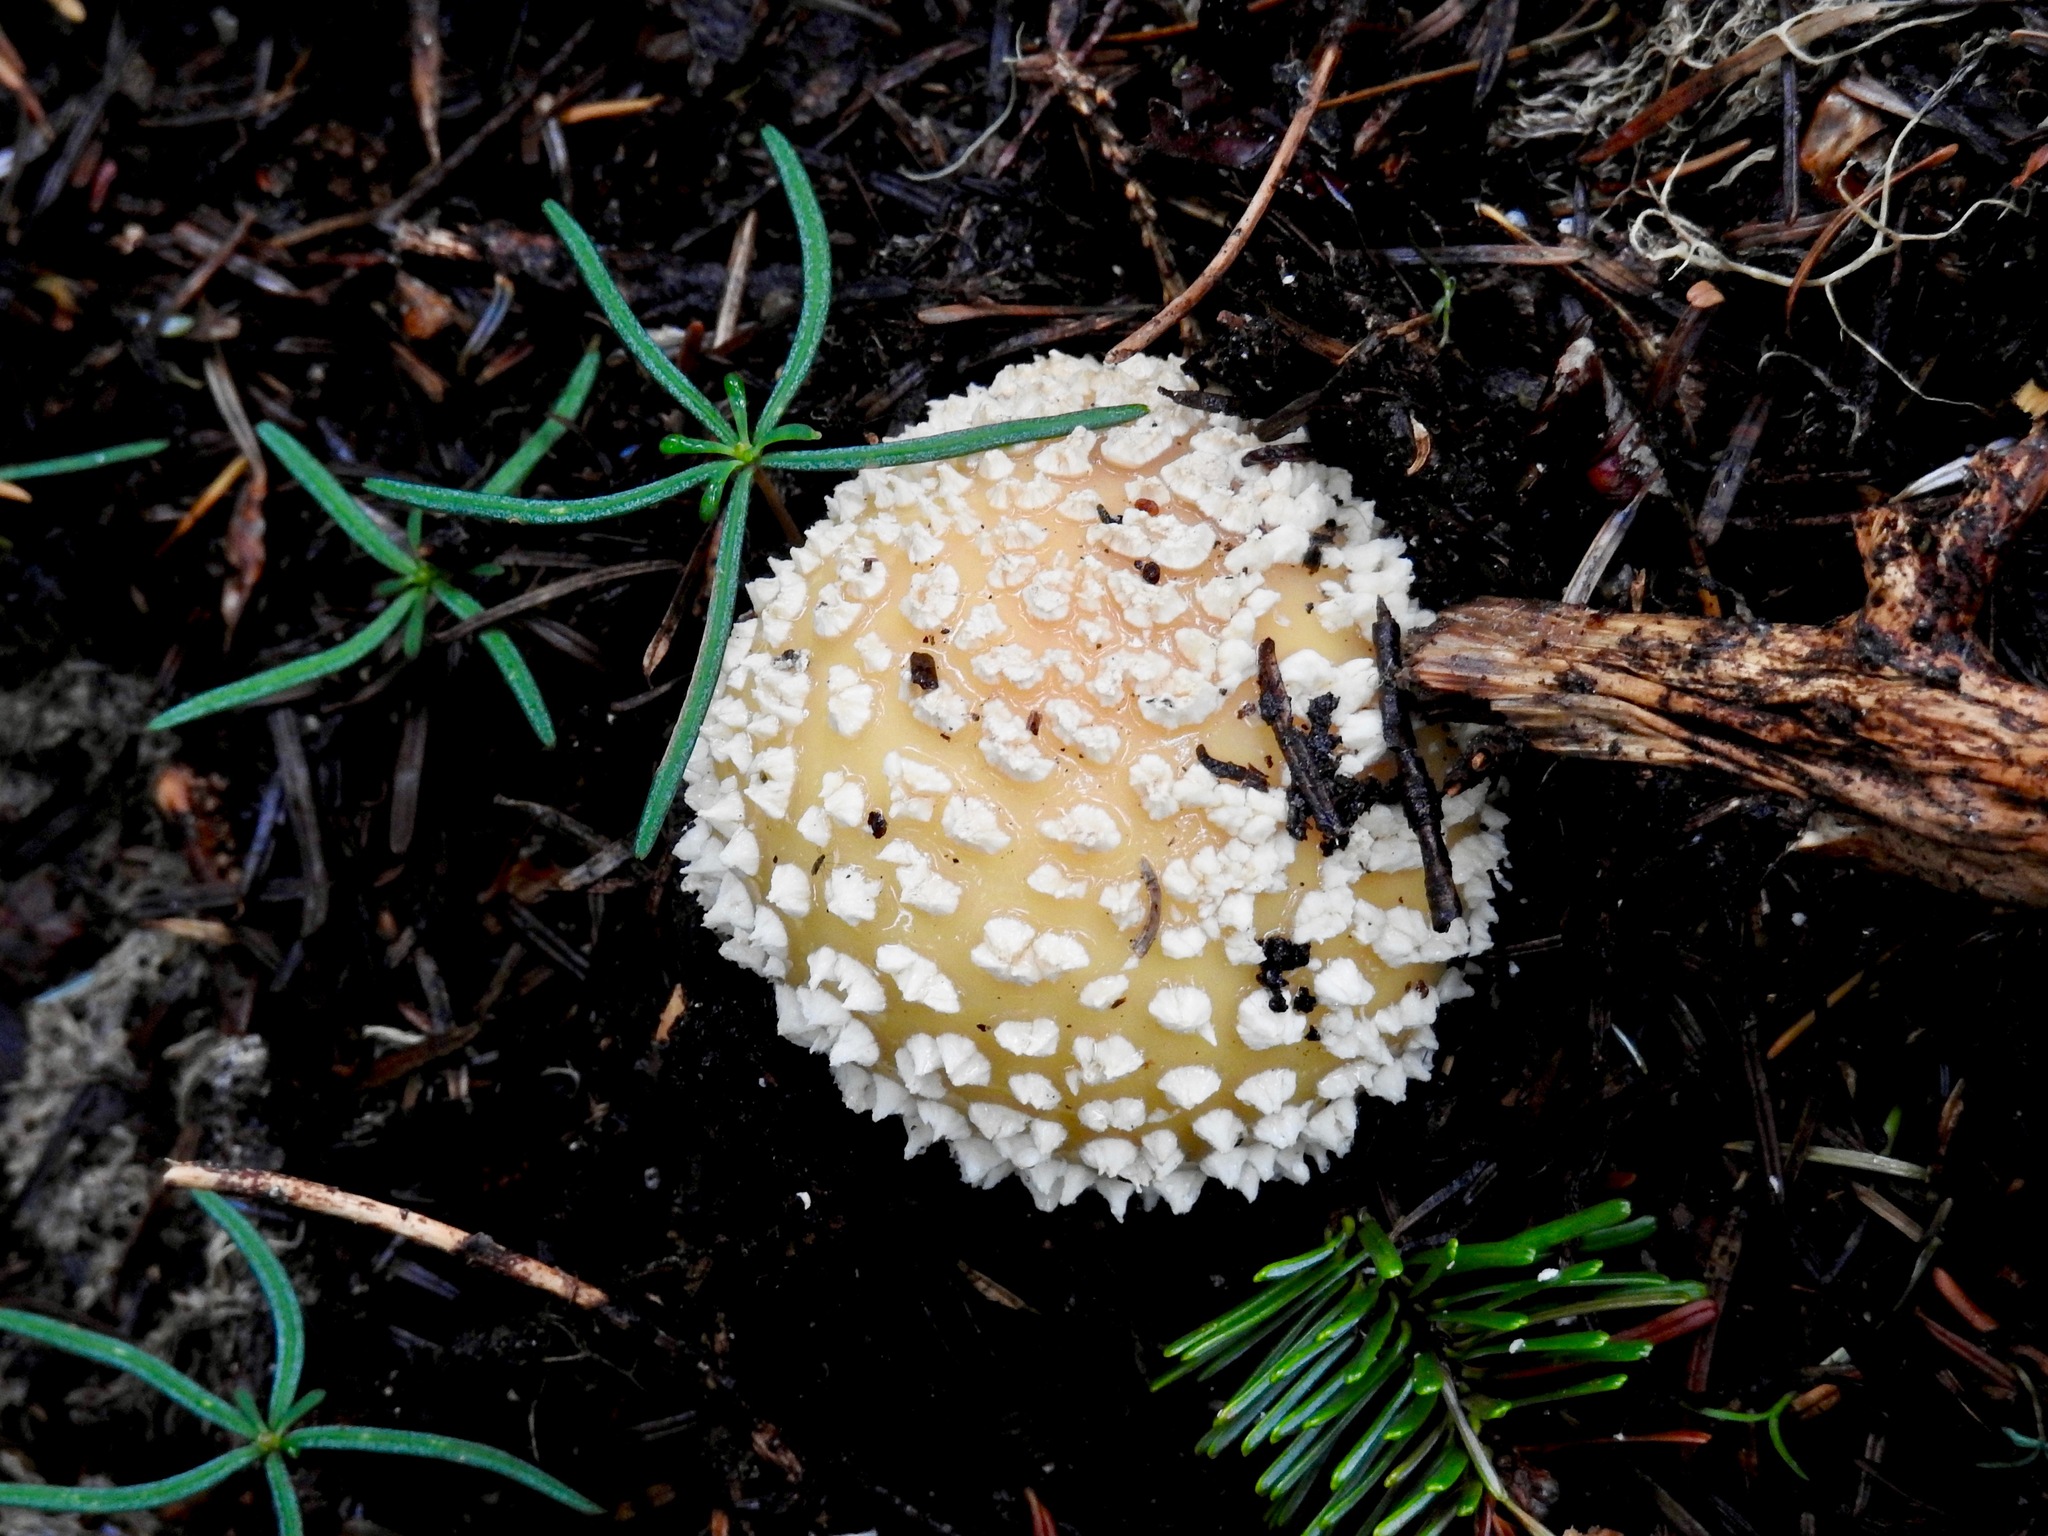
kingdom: Fungi
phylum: Basidiomycota
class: Agaricomycetes
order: Agaricales
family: Amanitaceae
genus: Amanita
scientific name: Amanita pantherina
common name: Panthercap
